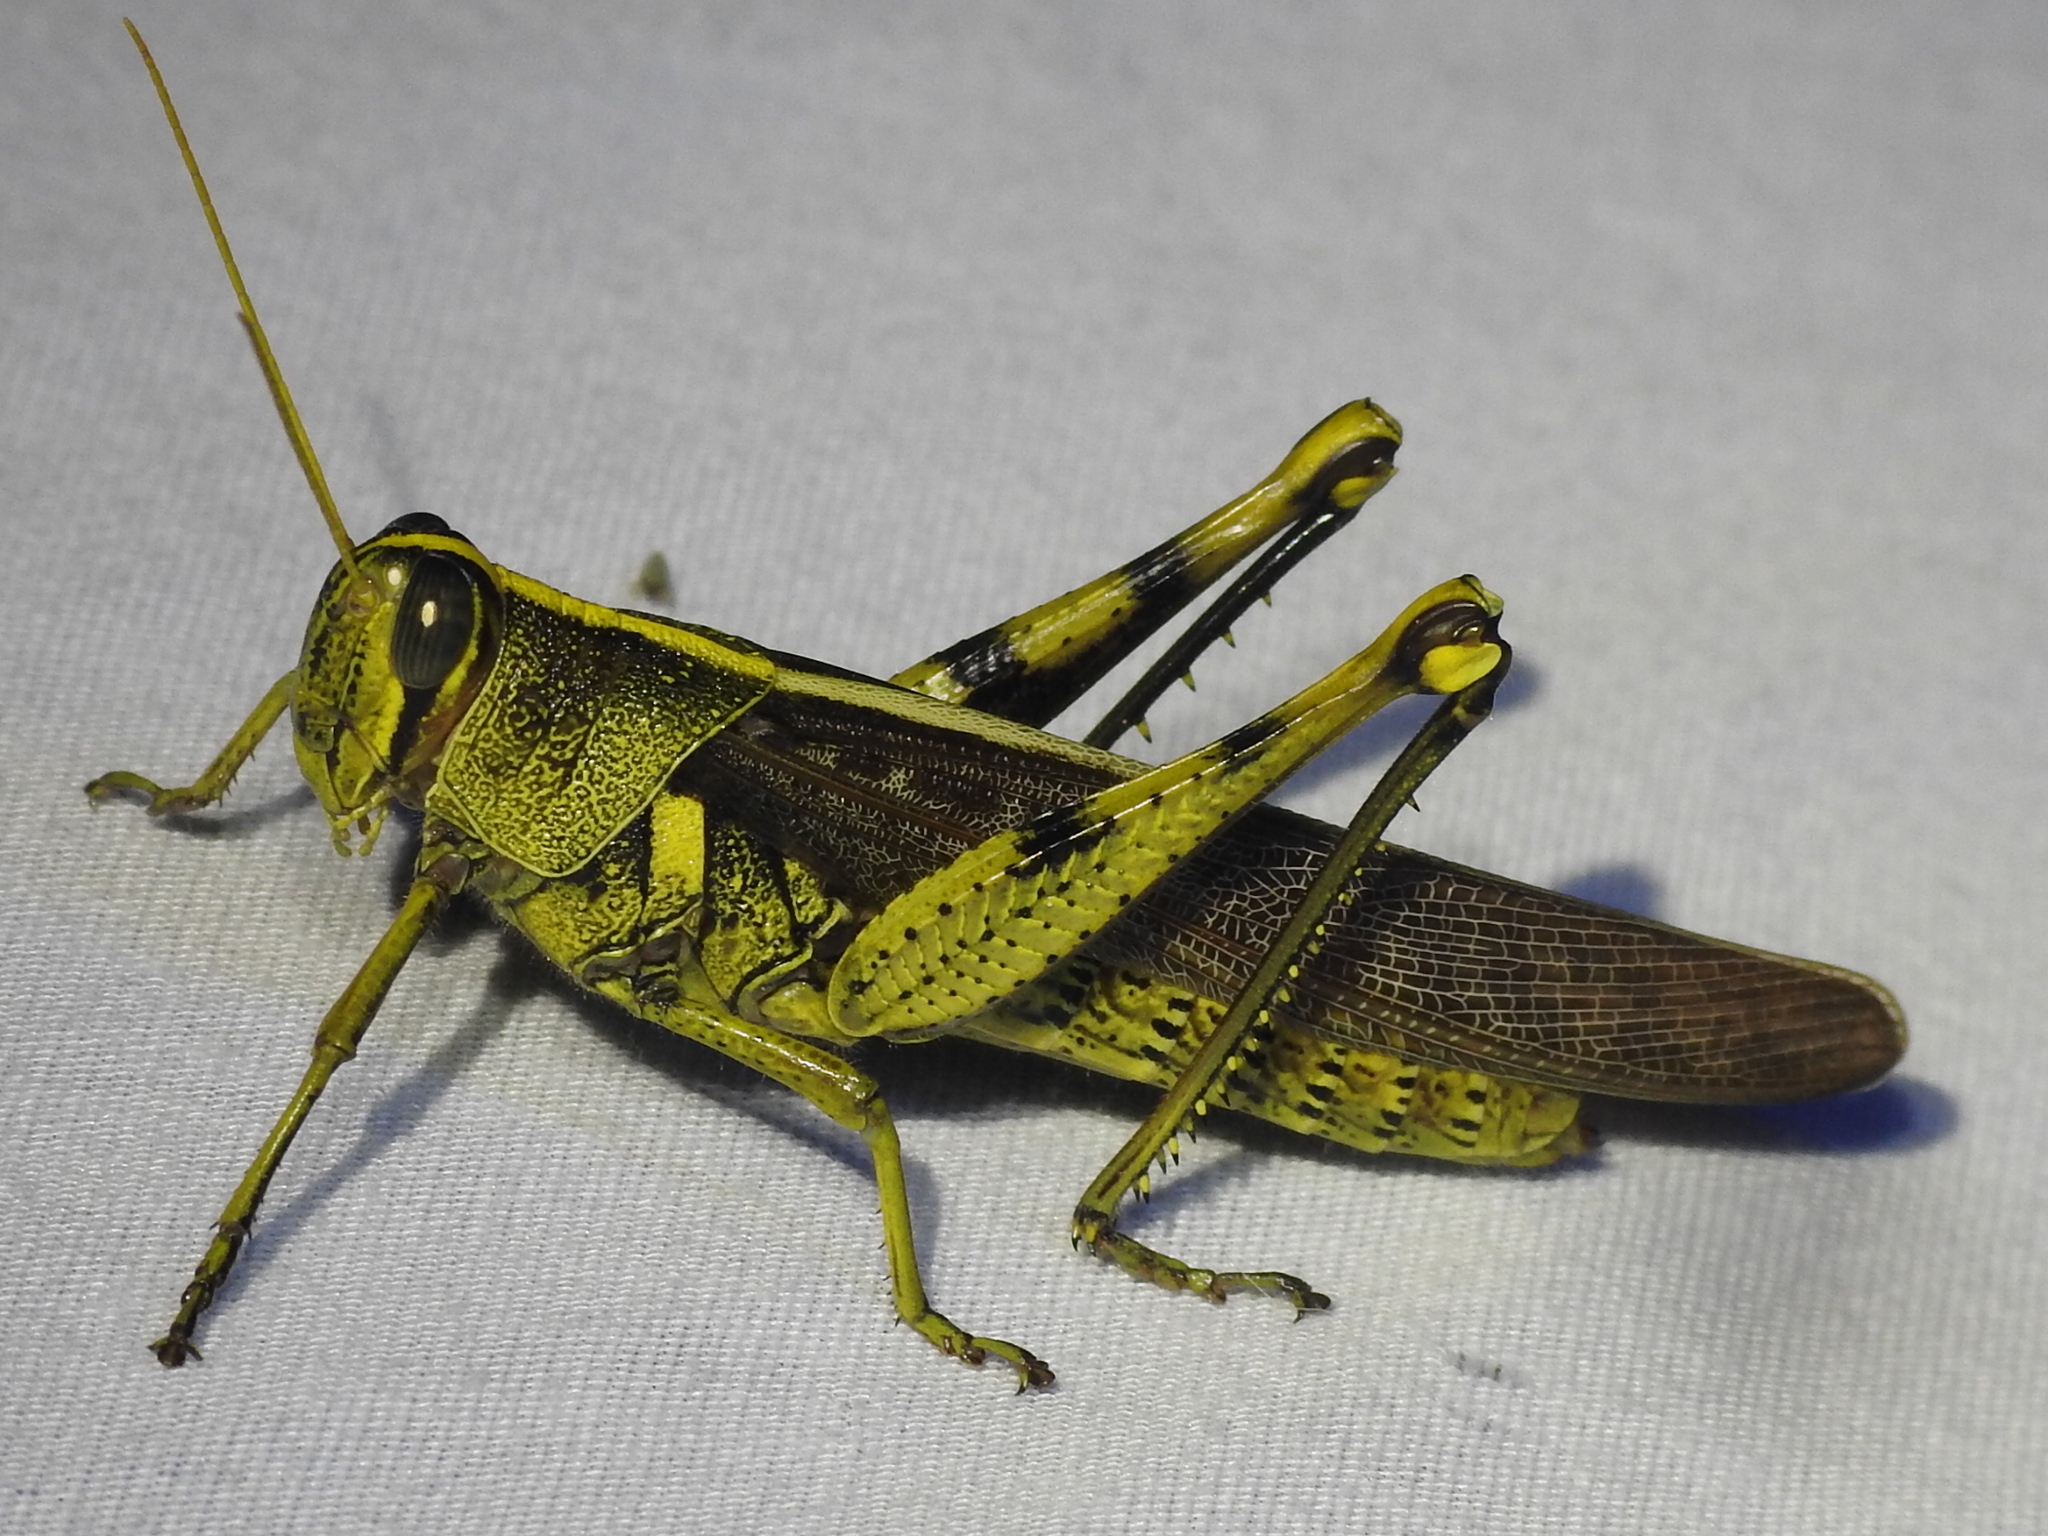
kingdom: Animalia
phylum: Arthropoda
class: Insecta
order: Orthoptera
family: Acrididae
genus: Schistocerca
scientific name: Schistocerca obscura
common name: Obscure bird grasshopper
